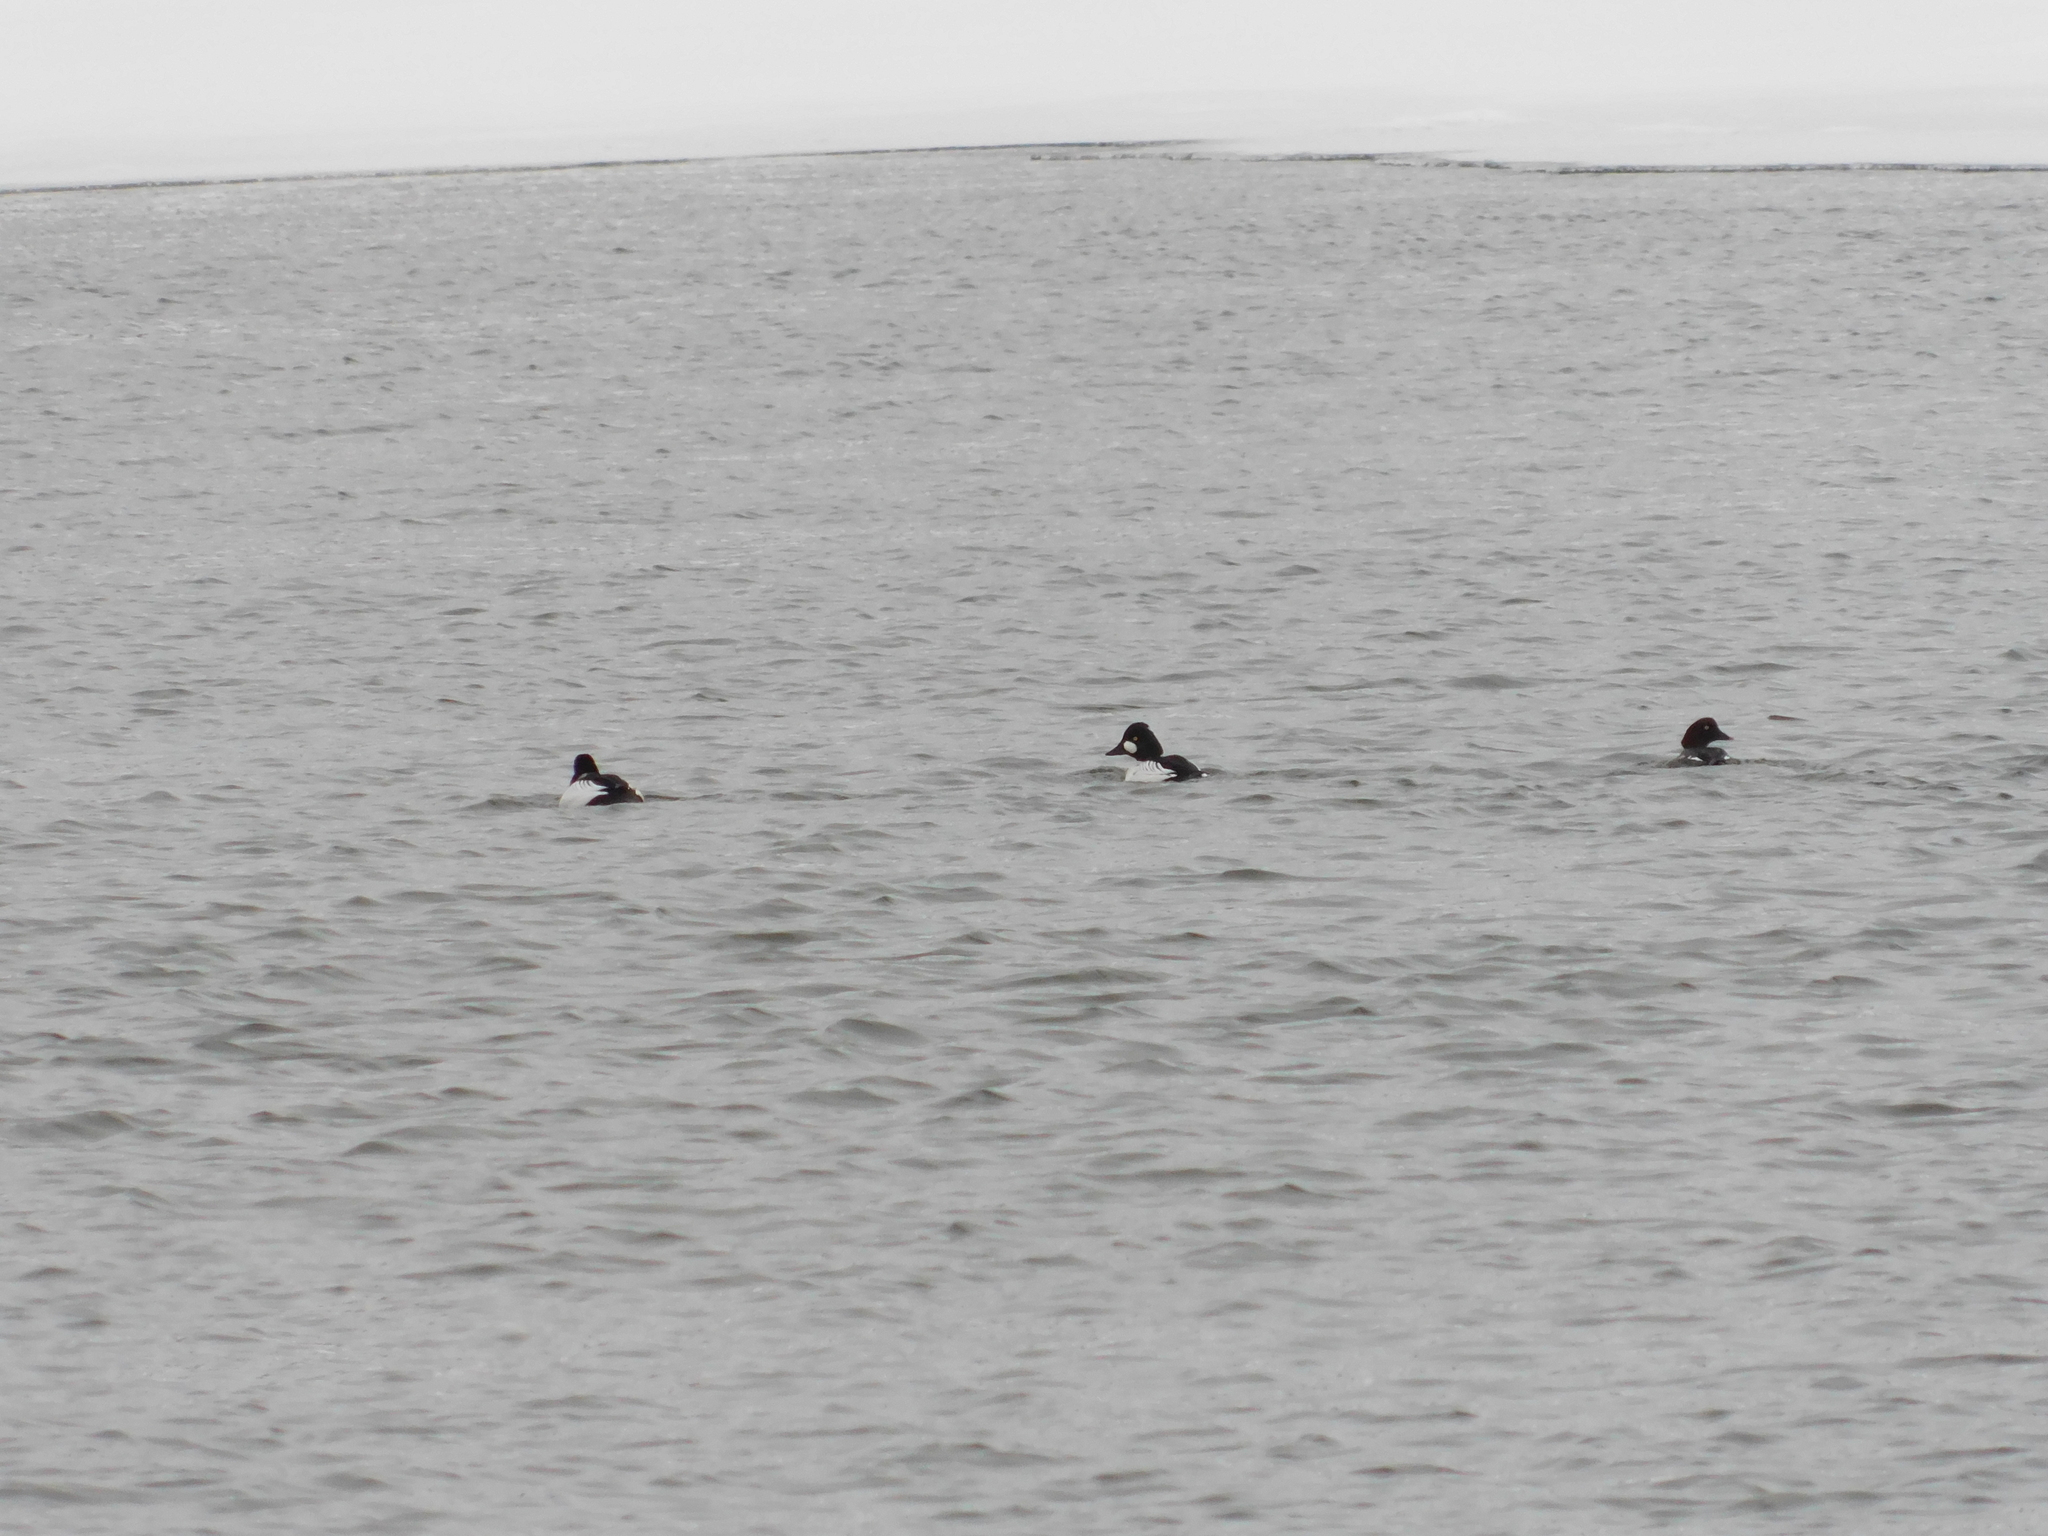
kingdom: Animalia
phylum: Chordata
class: Aves
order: Anseriformes
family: Anatidae
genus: Bucephala
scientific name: Bucephala clangula
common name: Common goldeneye
